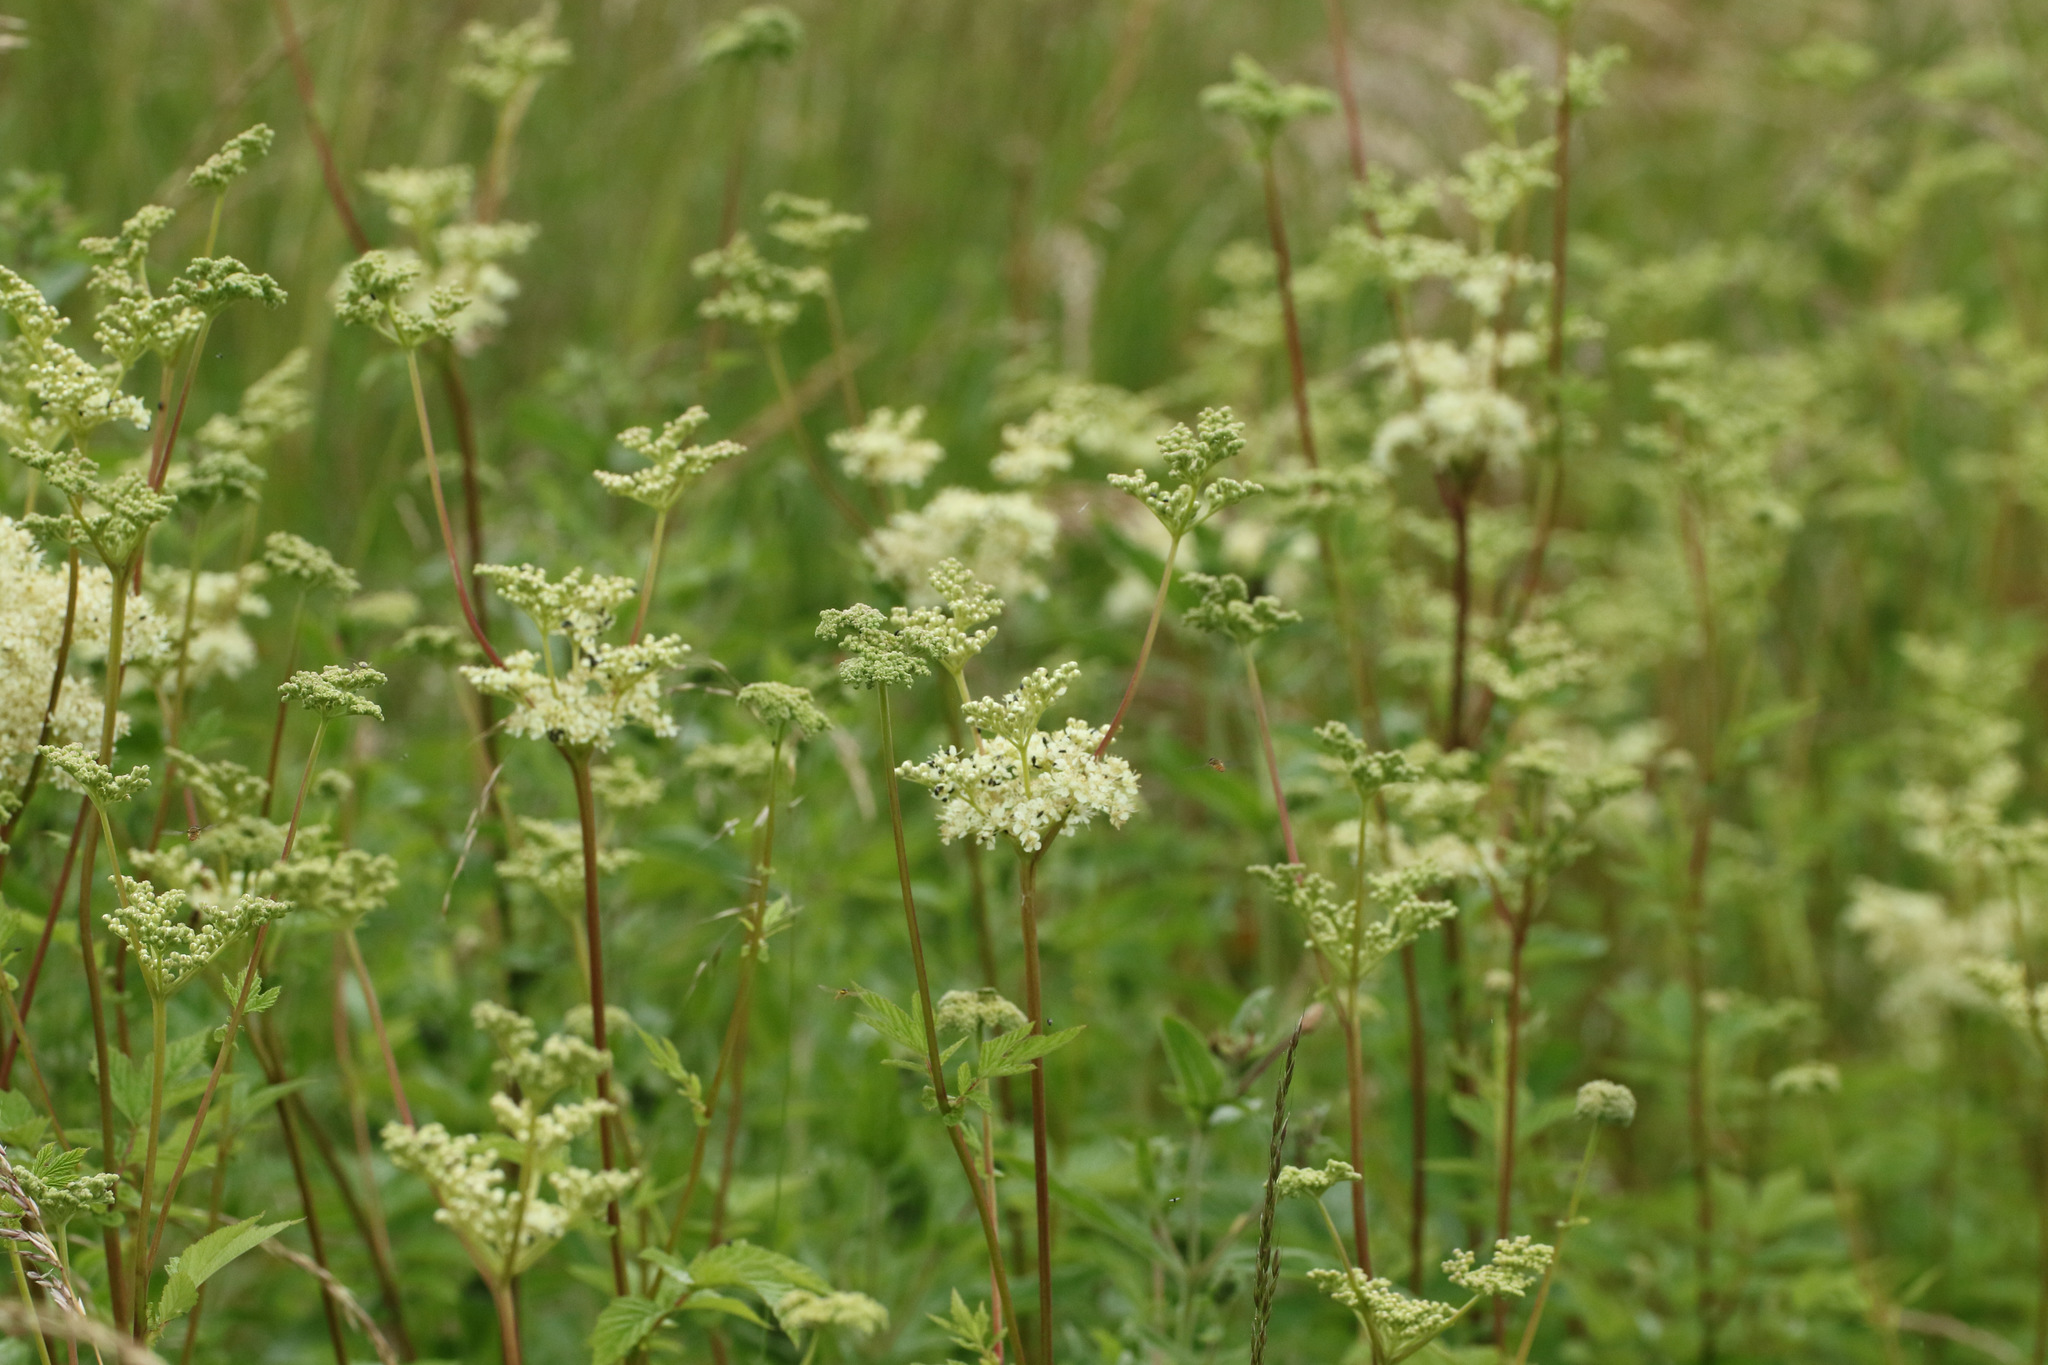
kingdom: Plantae
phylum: Tracheophyta
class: Magnoliopsida
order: Rosales
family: Rosaceae
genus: Filipendula
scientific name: Filipendula ulmaria
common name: Meadowsweet
